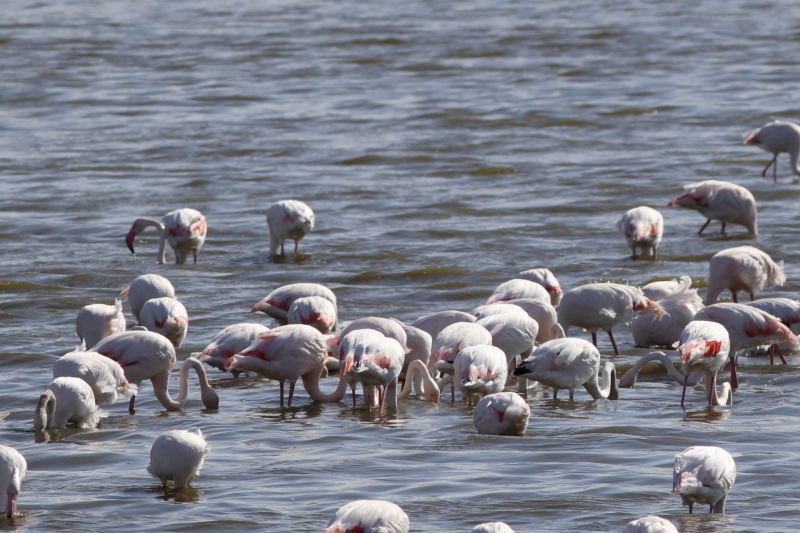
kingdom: Animalia
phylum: Chordata
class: Aves
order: Phoenicopteriformes
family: Phoenicopteridae
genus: Phoenicopterus
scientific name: Phoenicopterus roseus
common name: Greater flamingo
